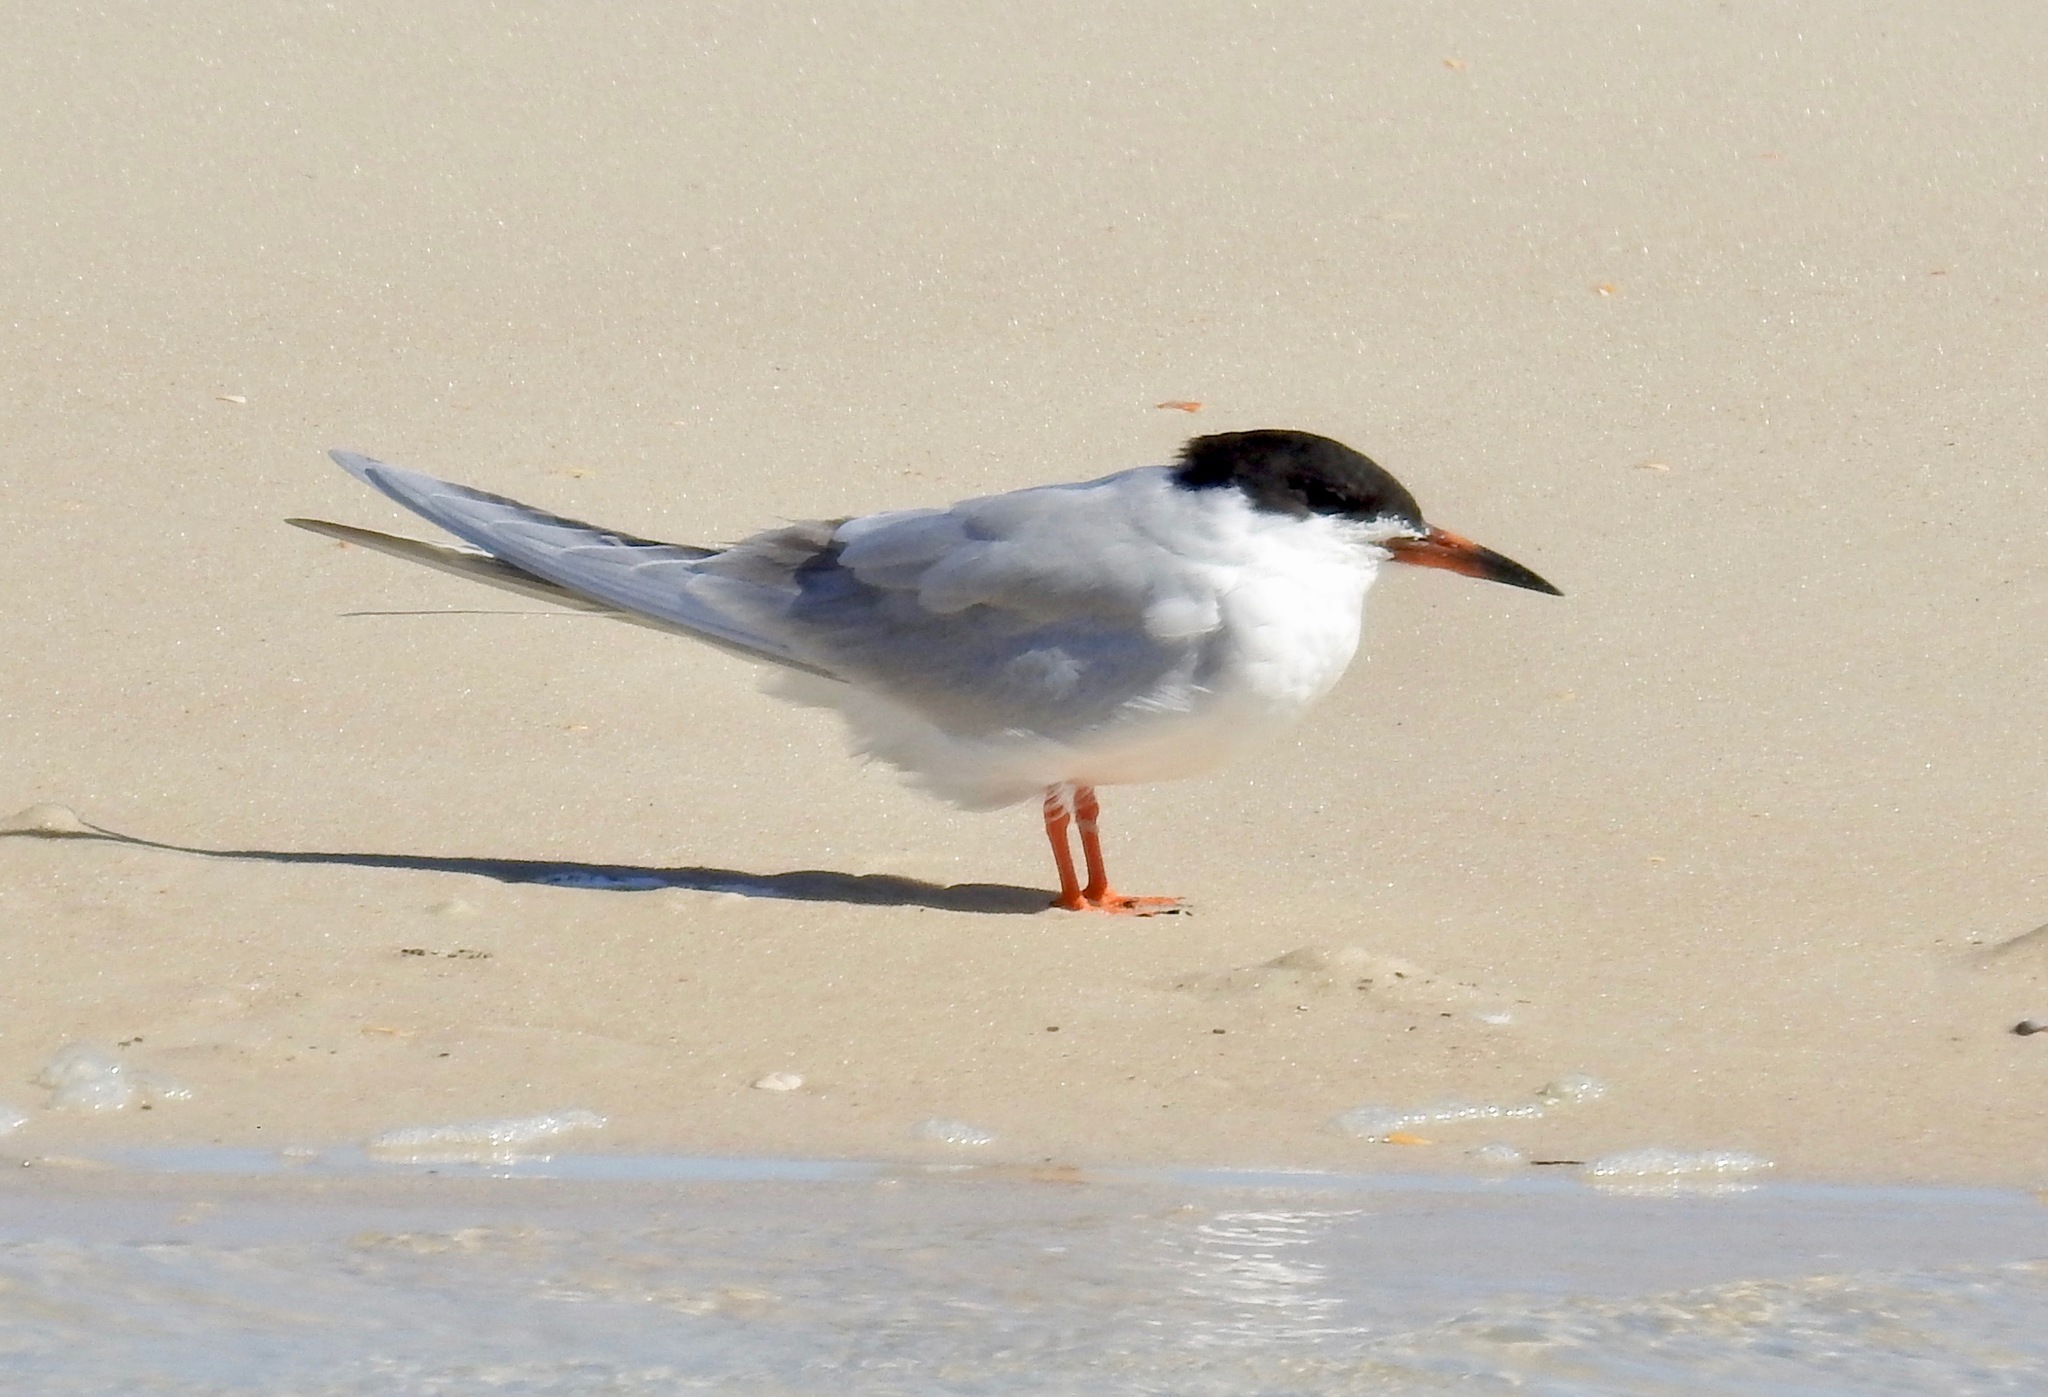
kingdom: Animalia
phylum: Chordata
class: Aves
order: Charadriiformes
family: Laridae
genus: Sterna
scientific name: Sterna forsteri
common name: Forster's tern
